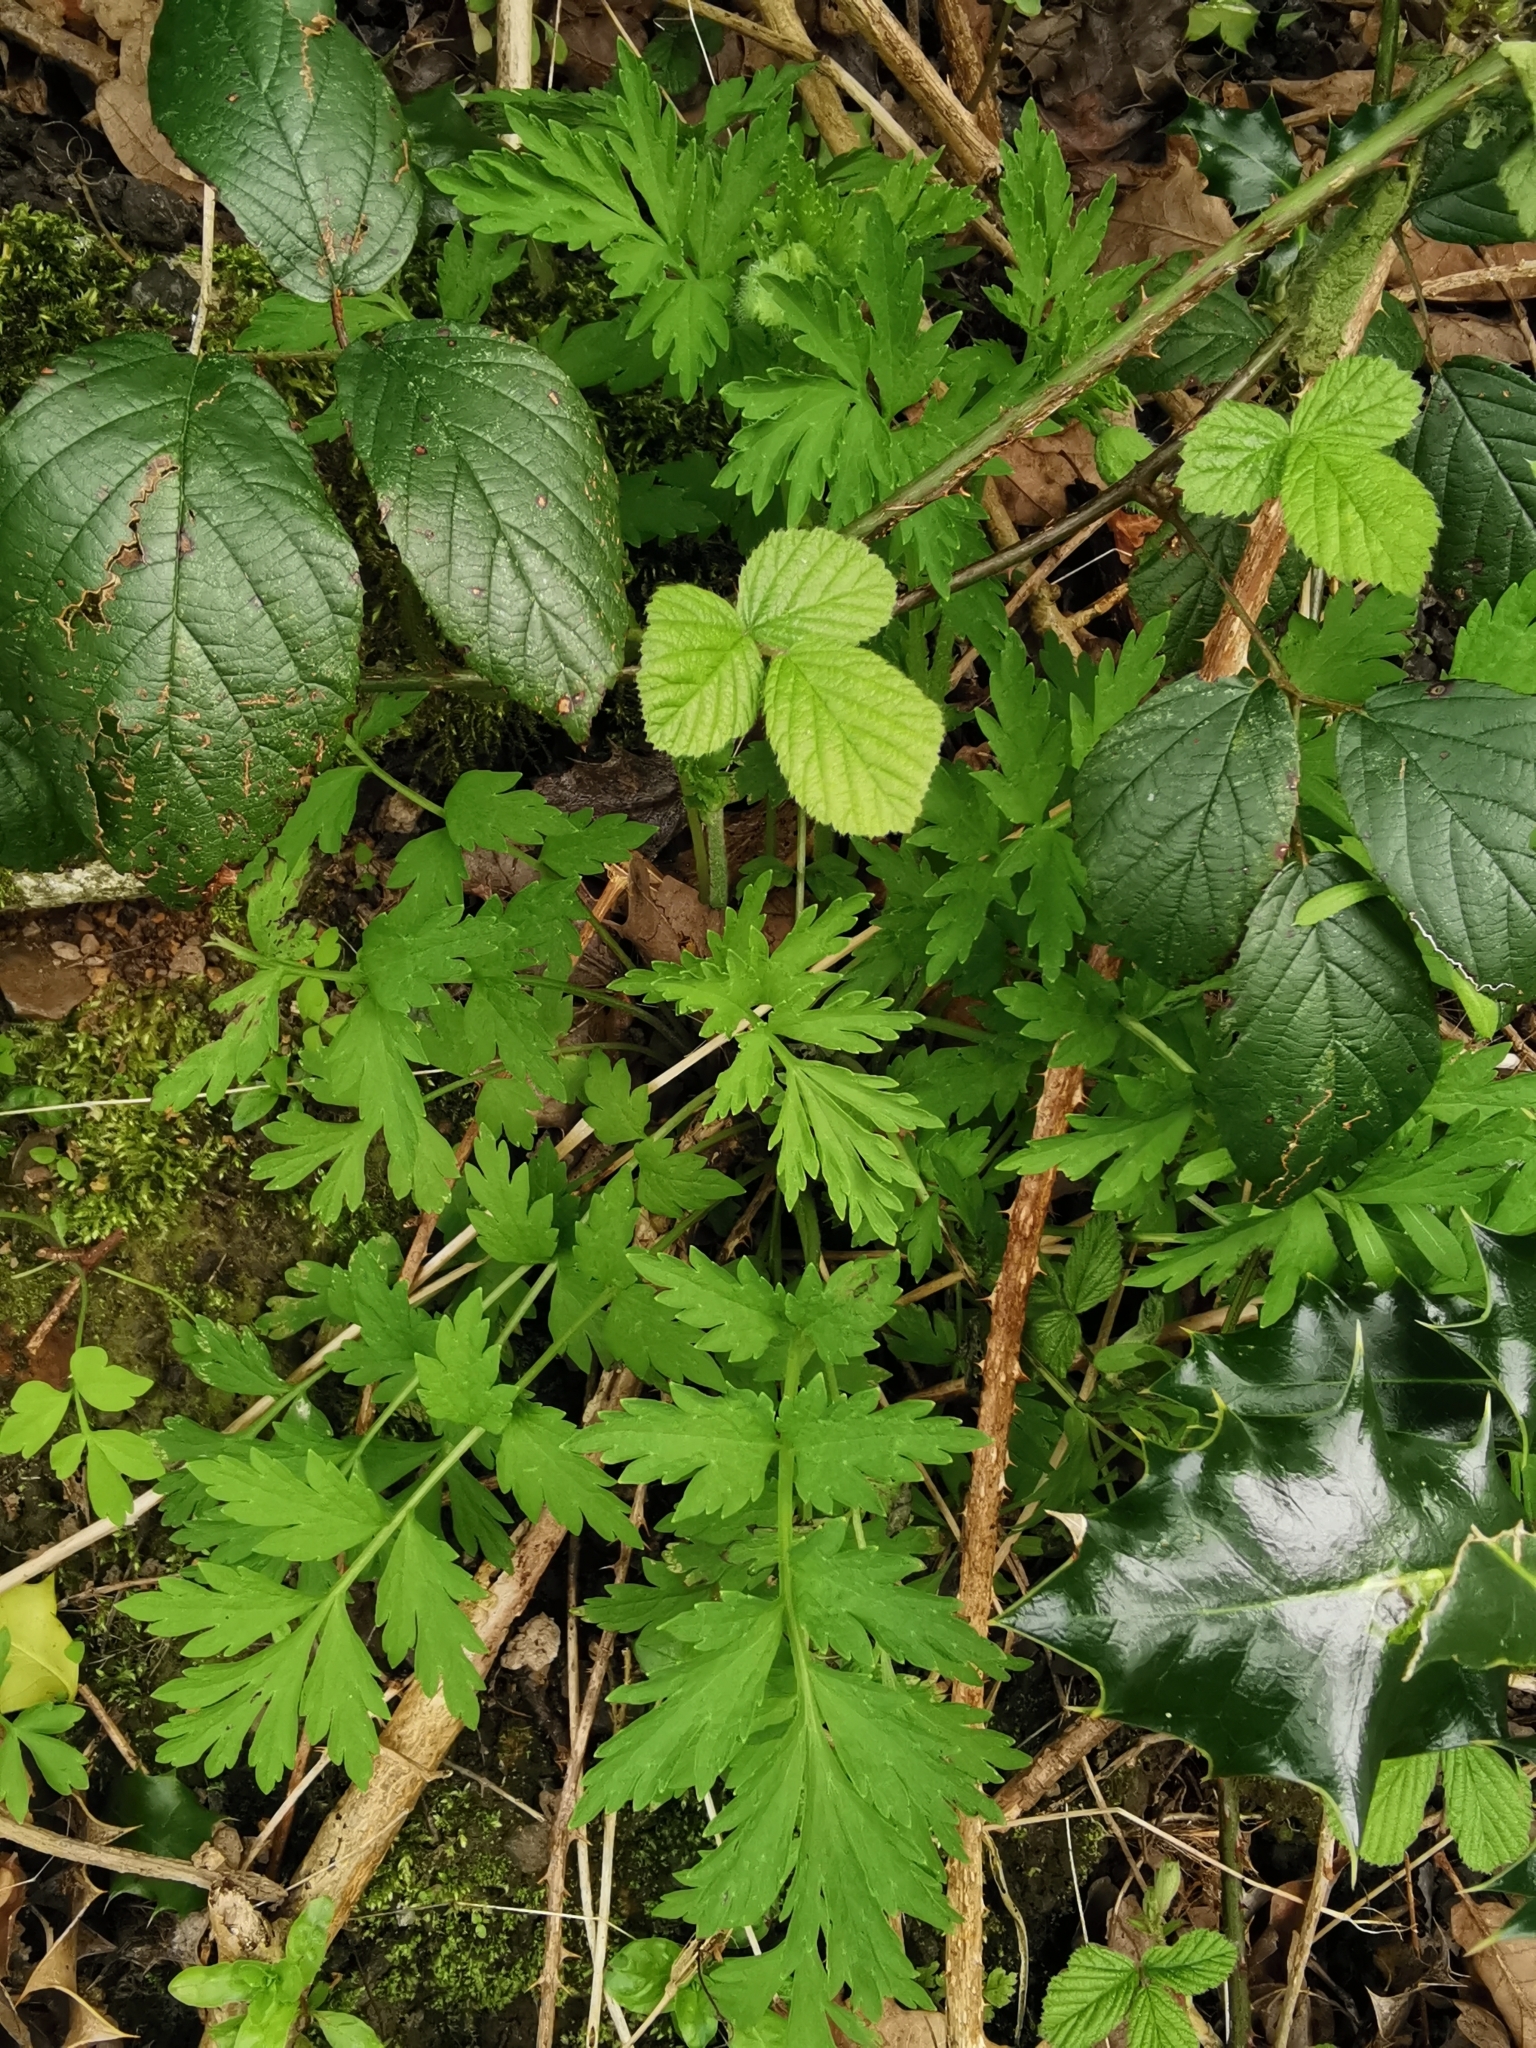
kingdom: Plantae
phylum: Tracheophyta
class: Magnoliopsida
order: Ranunculales
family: Papaveraceae
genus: Papaver
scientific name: Papaver cambricum
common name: Poppy
